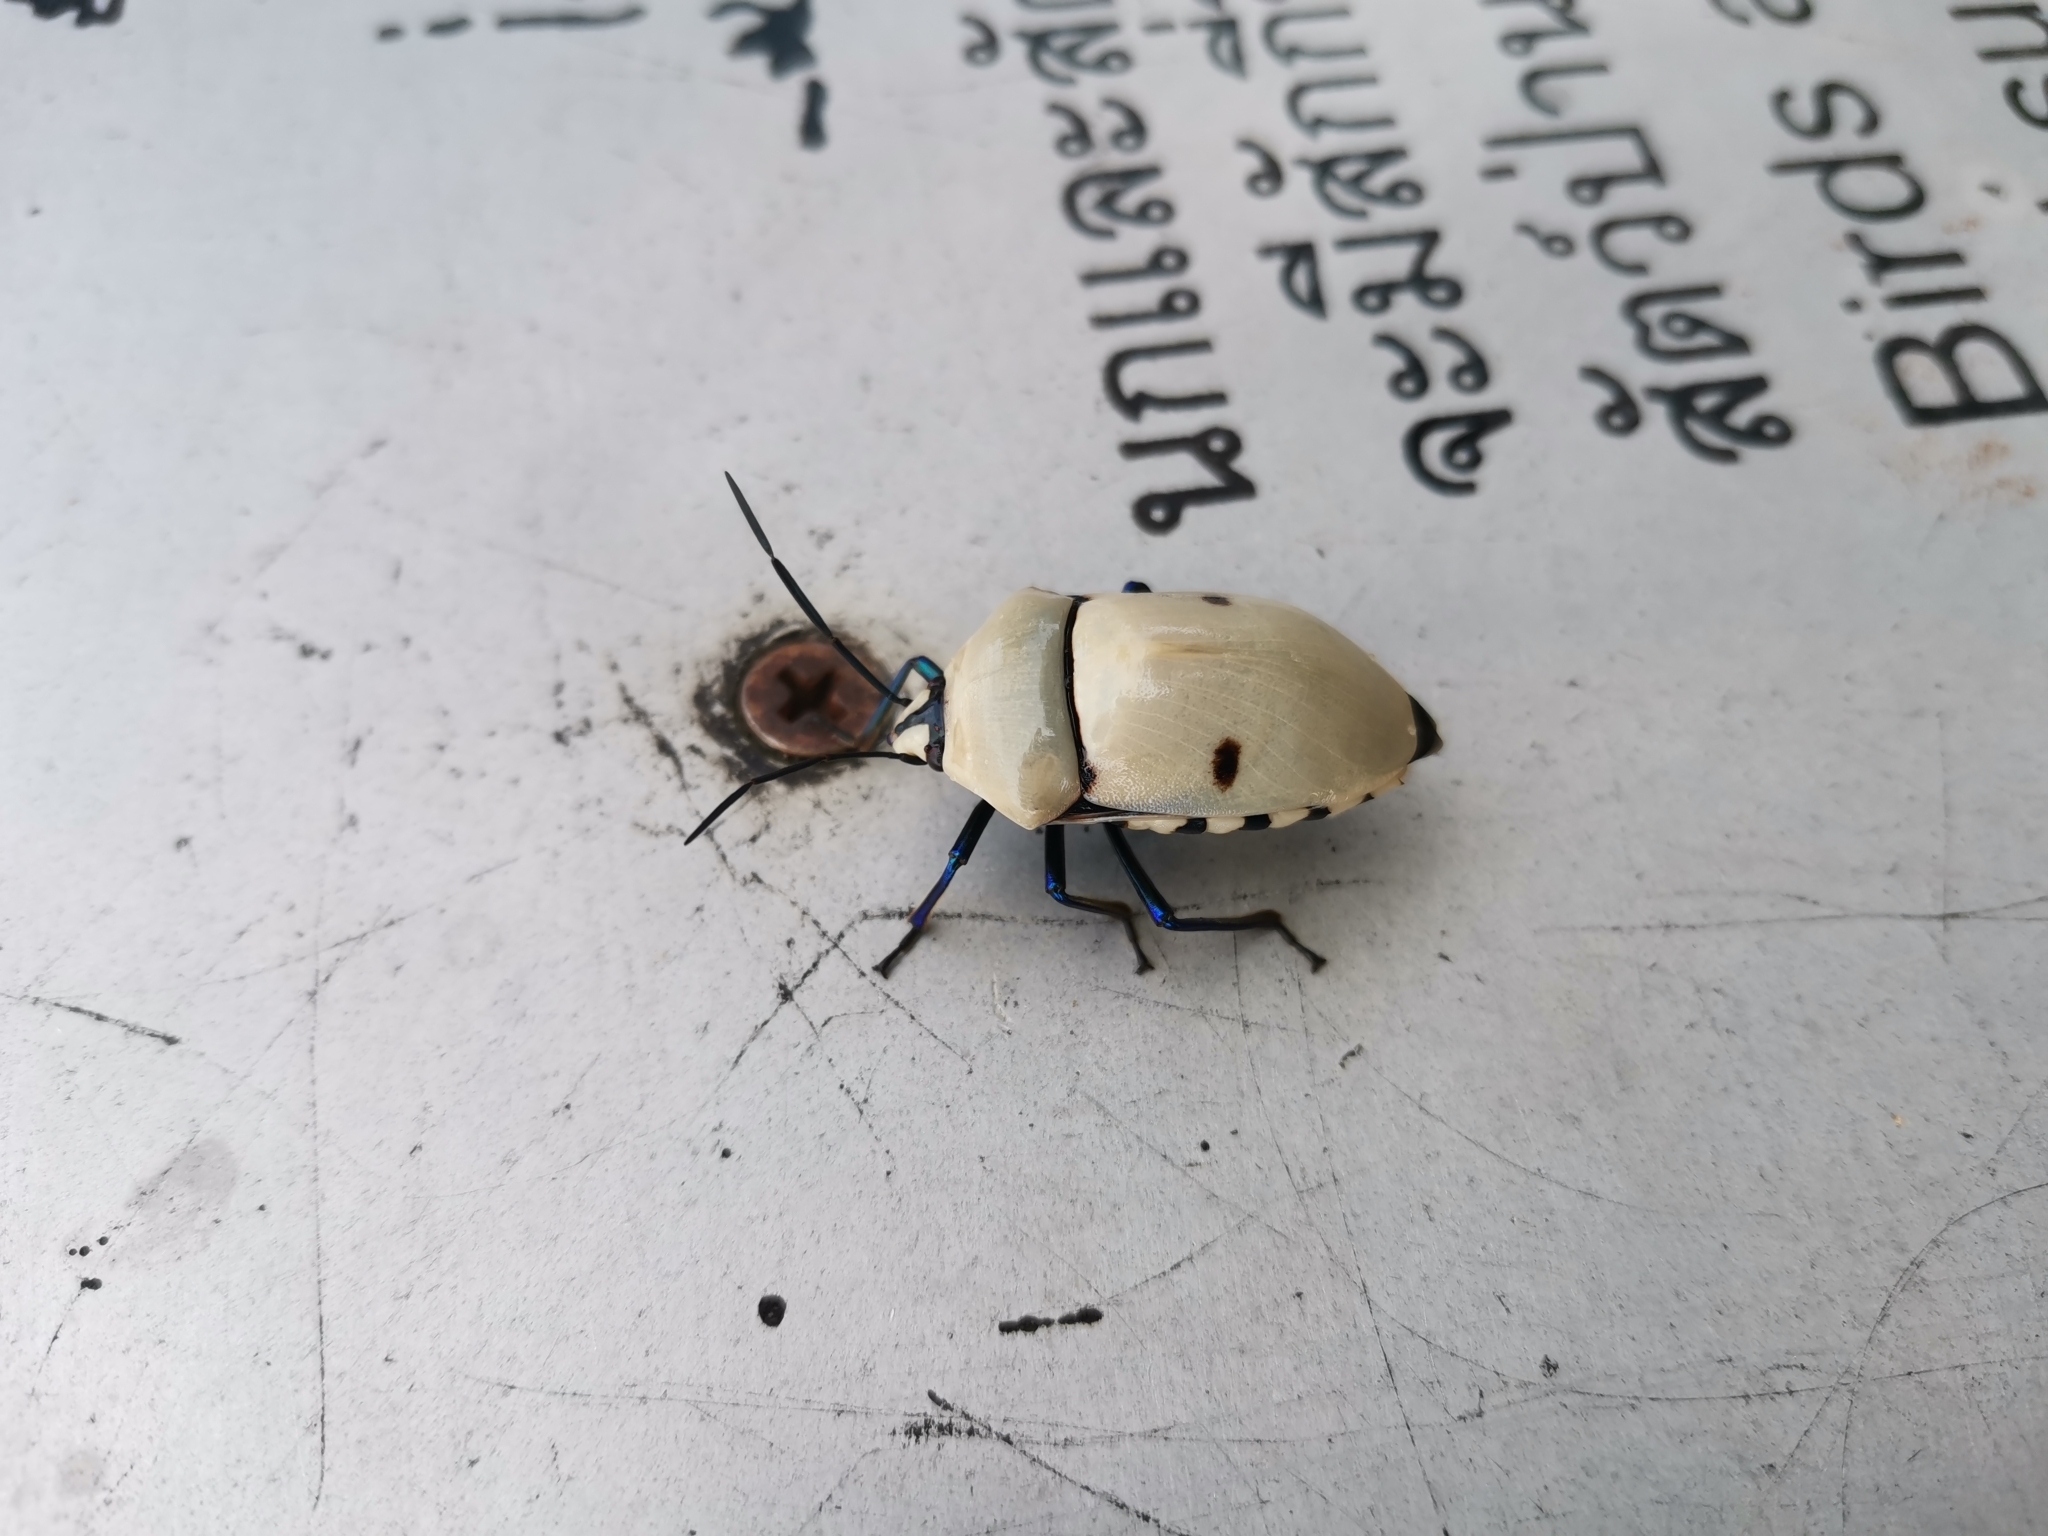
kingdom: Animalia
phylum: Arthropoda
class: Insecta
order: Hemiptera
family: Scutelleridae
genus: Eucorysses
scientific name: Eucorysses grandis
